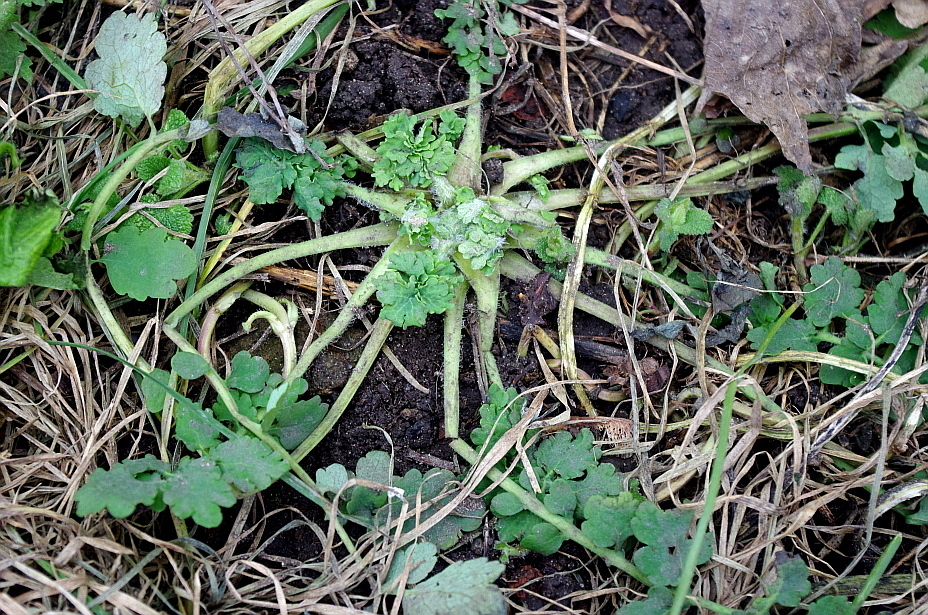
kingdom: Plantae
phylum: Tracheophyta
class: Magnoliopsida
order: Ranunculales
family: Papaveraceae
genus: Chelidonium
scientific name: Chelidonium majus
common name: Greater celandine
